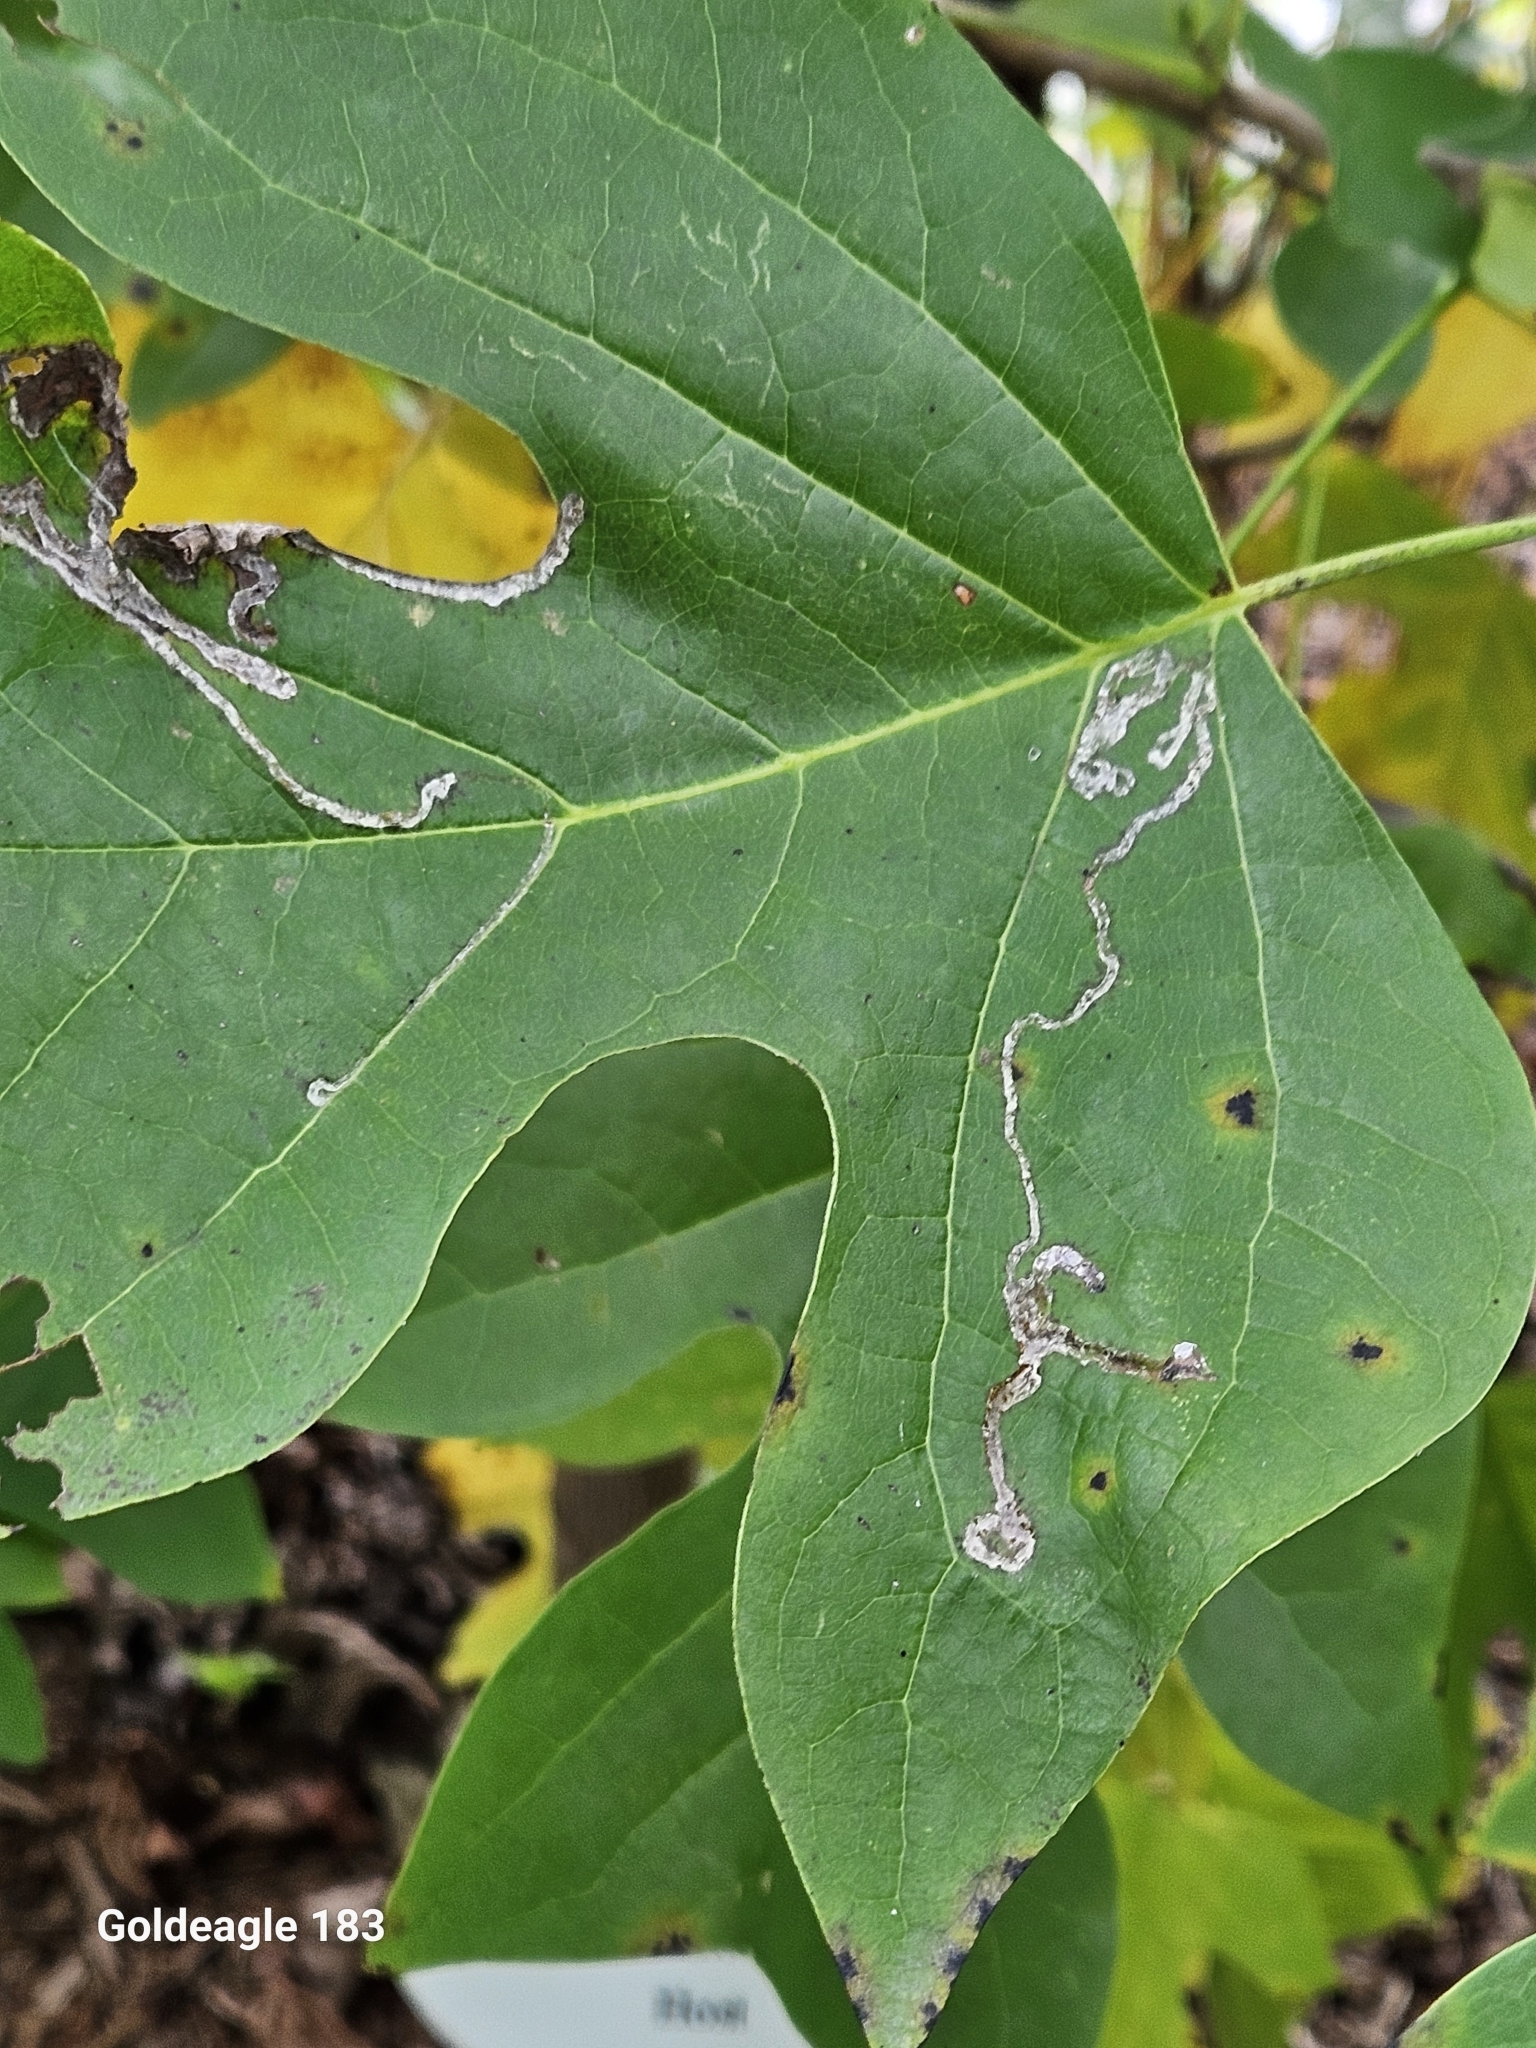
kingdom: Animalia
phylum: Arthropoda
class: Insecta
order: Lepidoptera
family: Gracillariidae
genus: Phyllocnistis
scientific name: Phyllocnistis liriodendronella
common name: Tulip tree leaf miner
